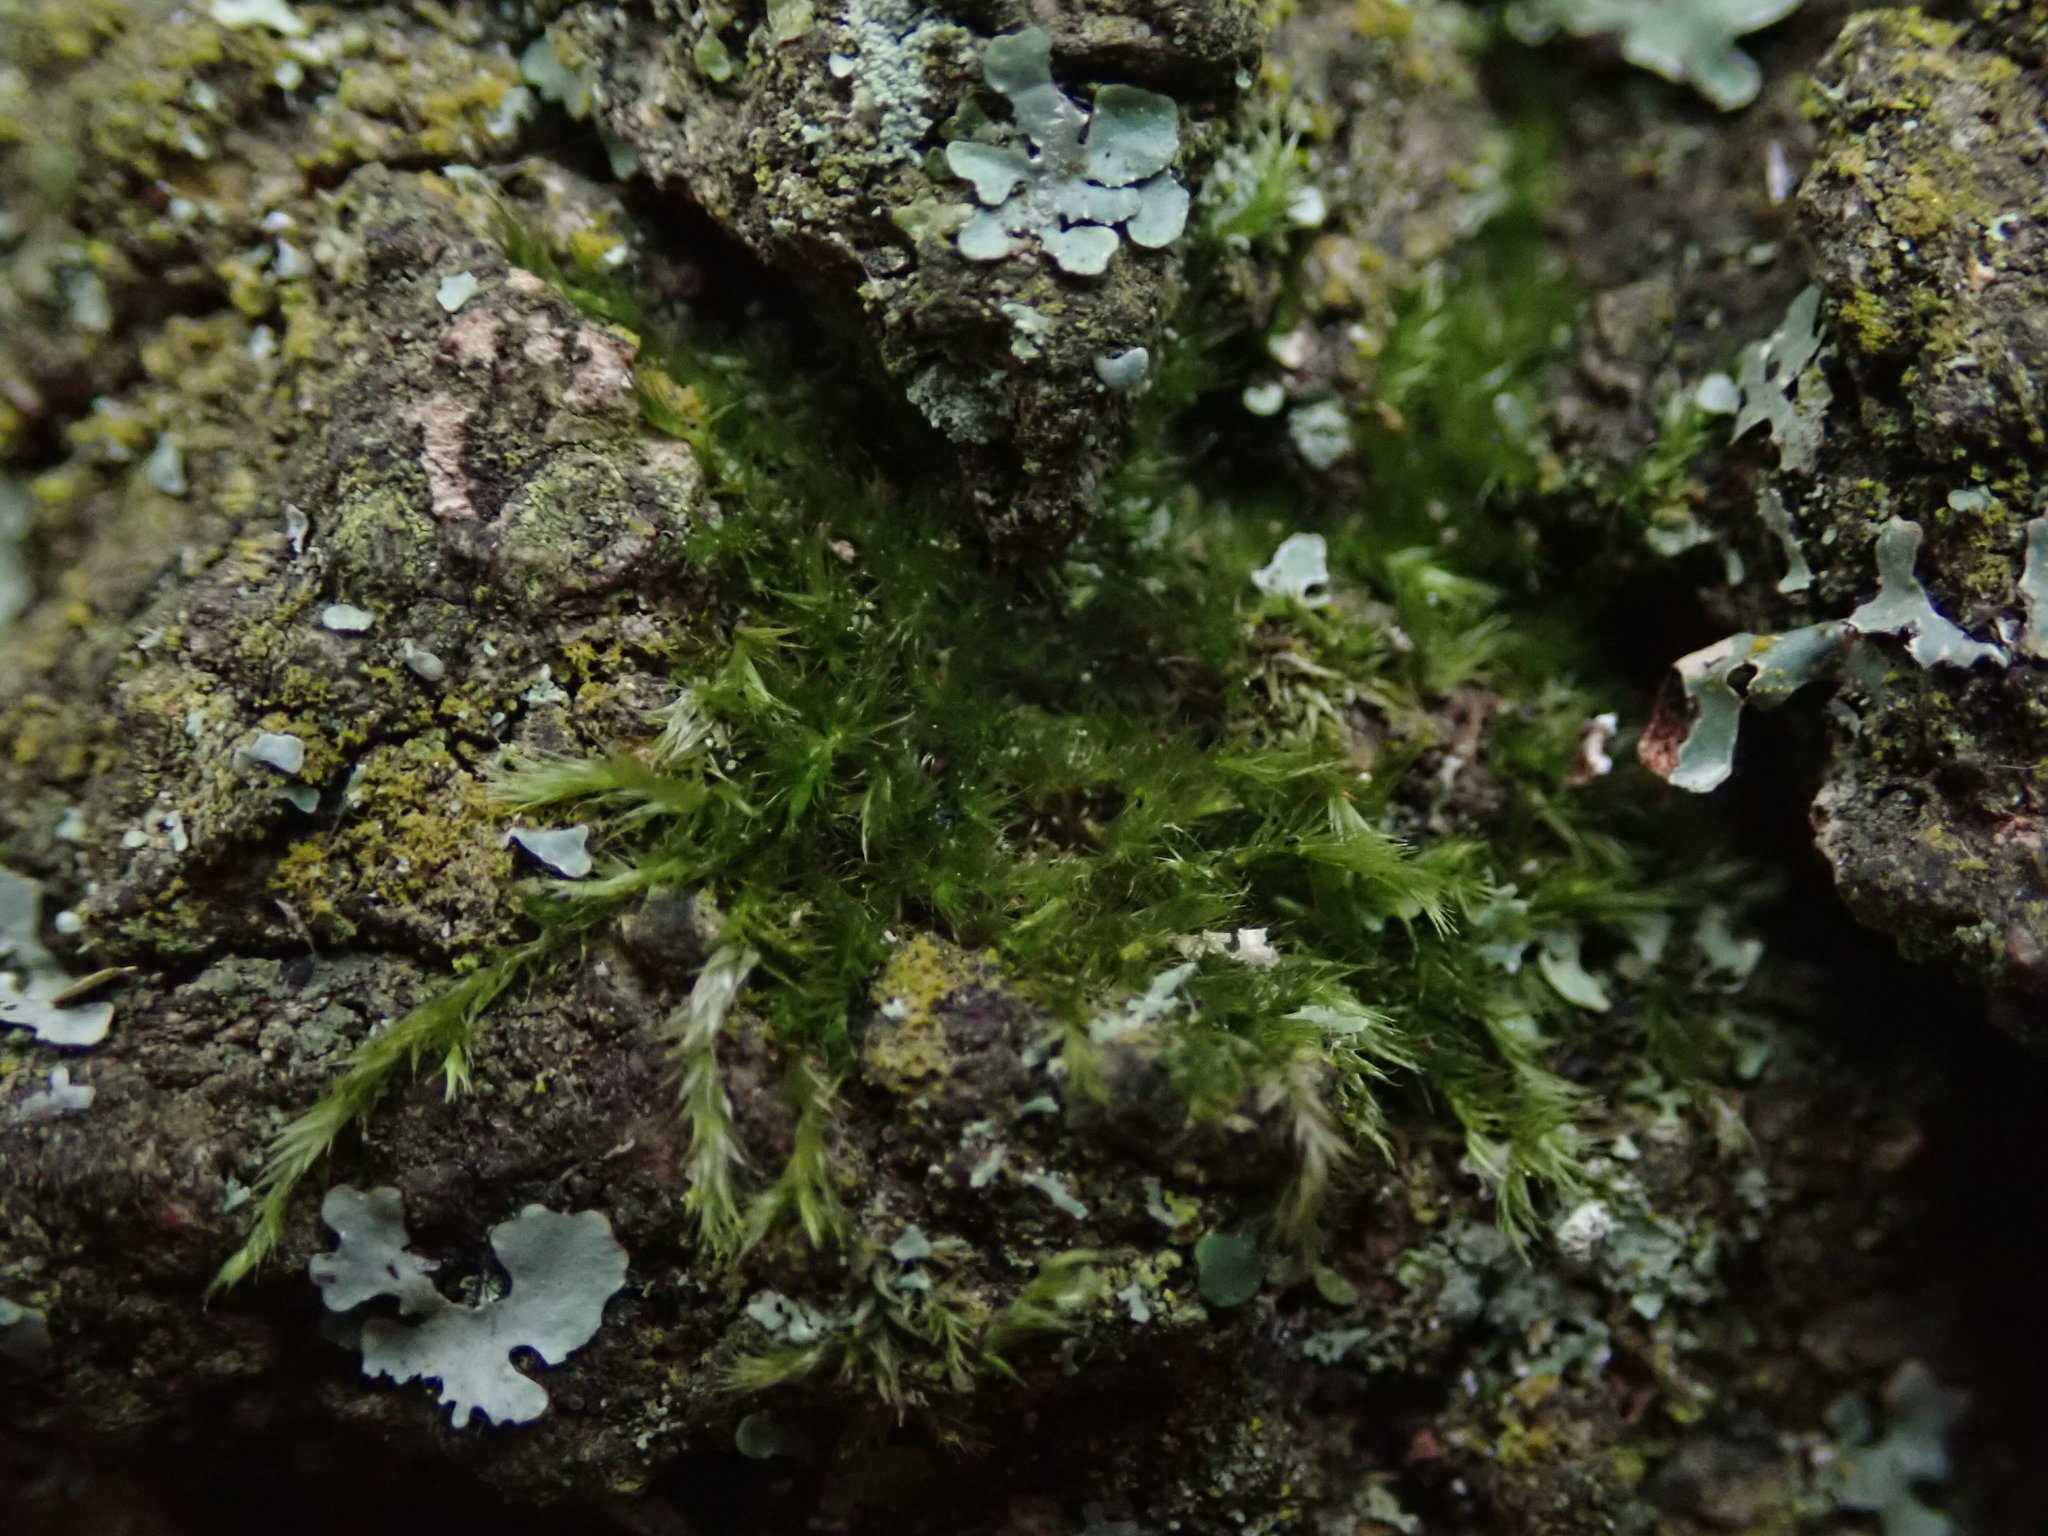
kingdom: Plantae
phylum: Bryophyta
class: Bryopsida
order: Hypnales
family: Brachytheciaceae
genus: Rhynchostegiella
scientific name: Rhynchostegiella tenella
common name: Tender feather-moss
